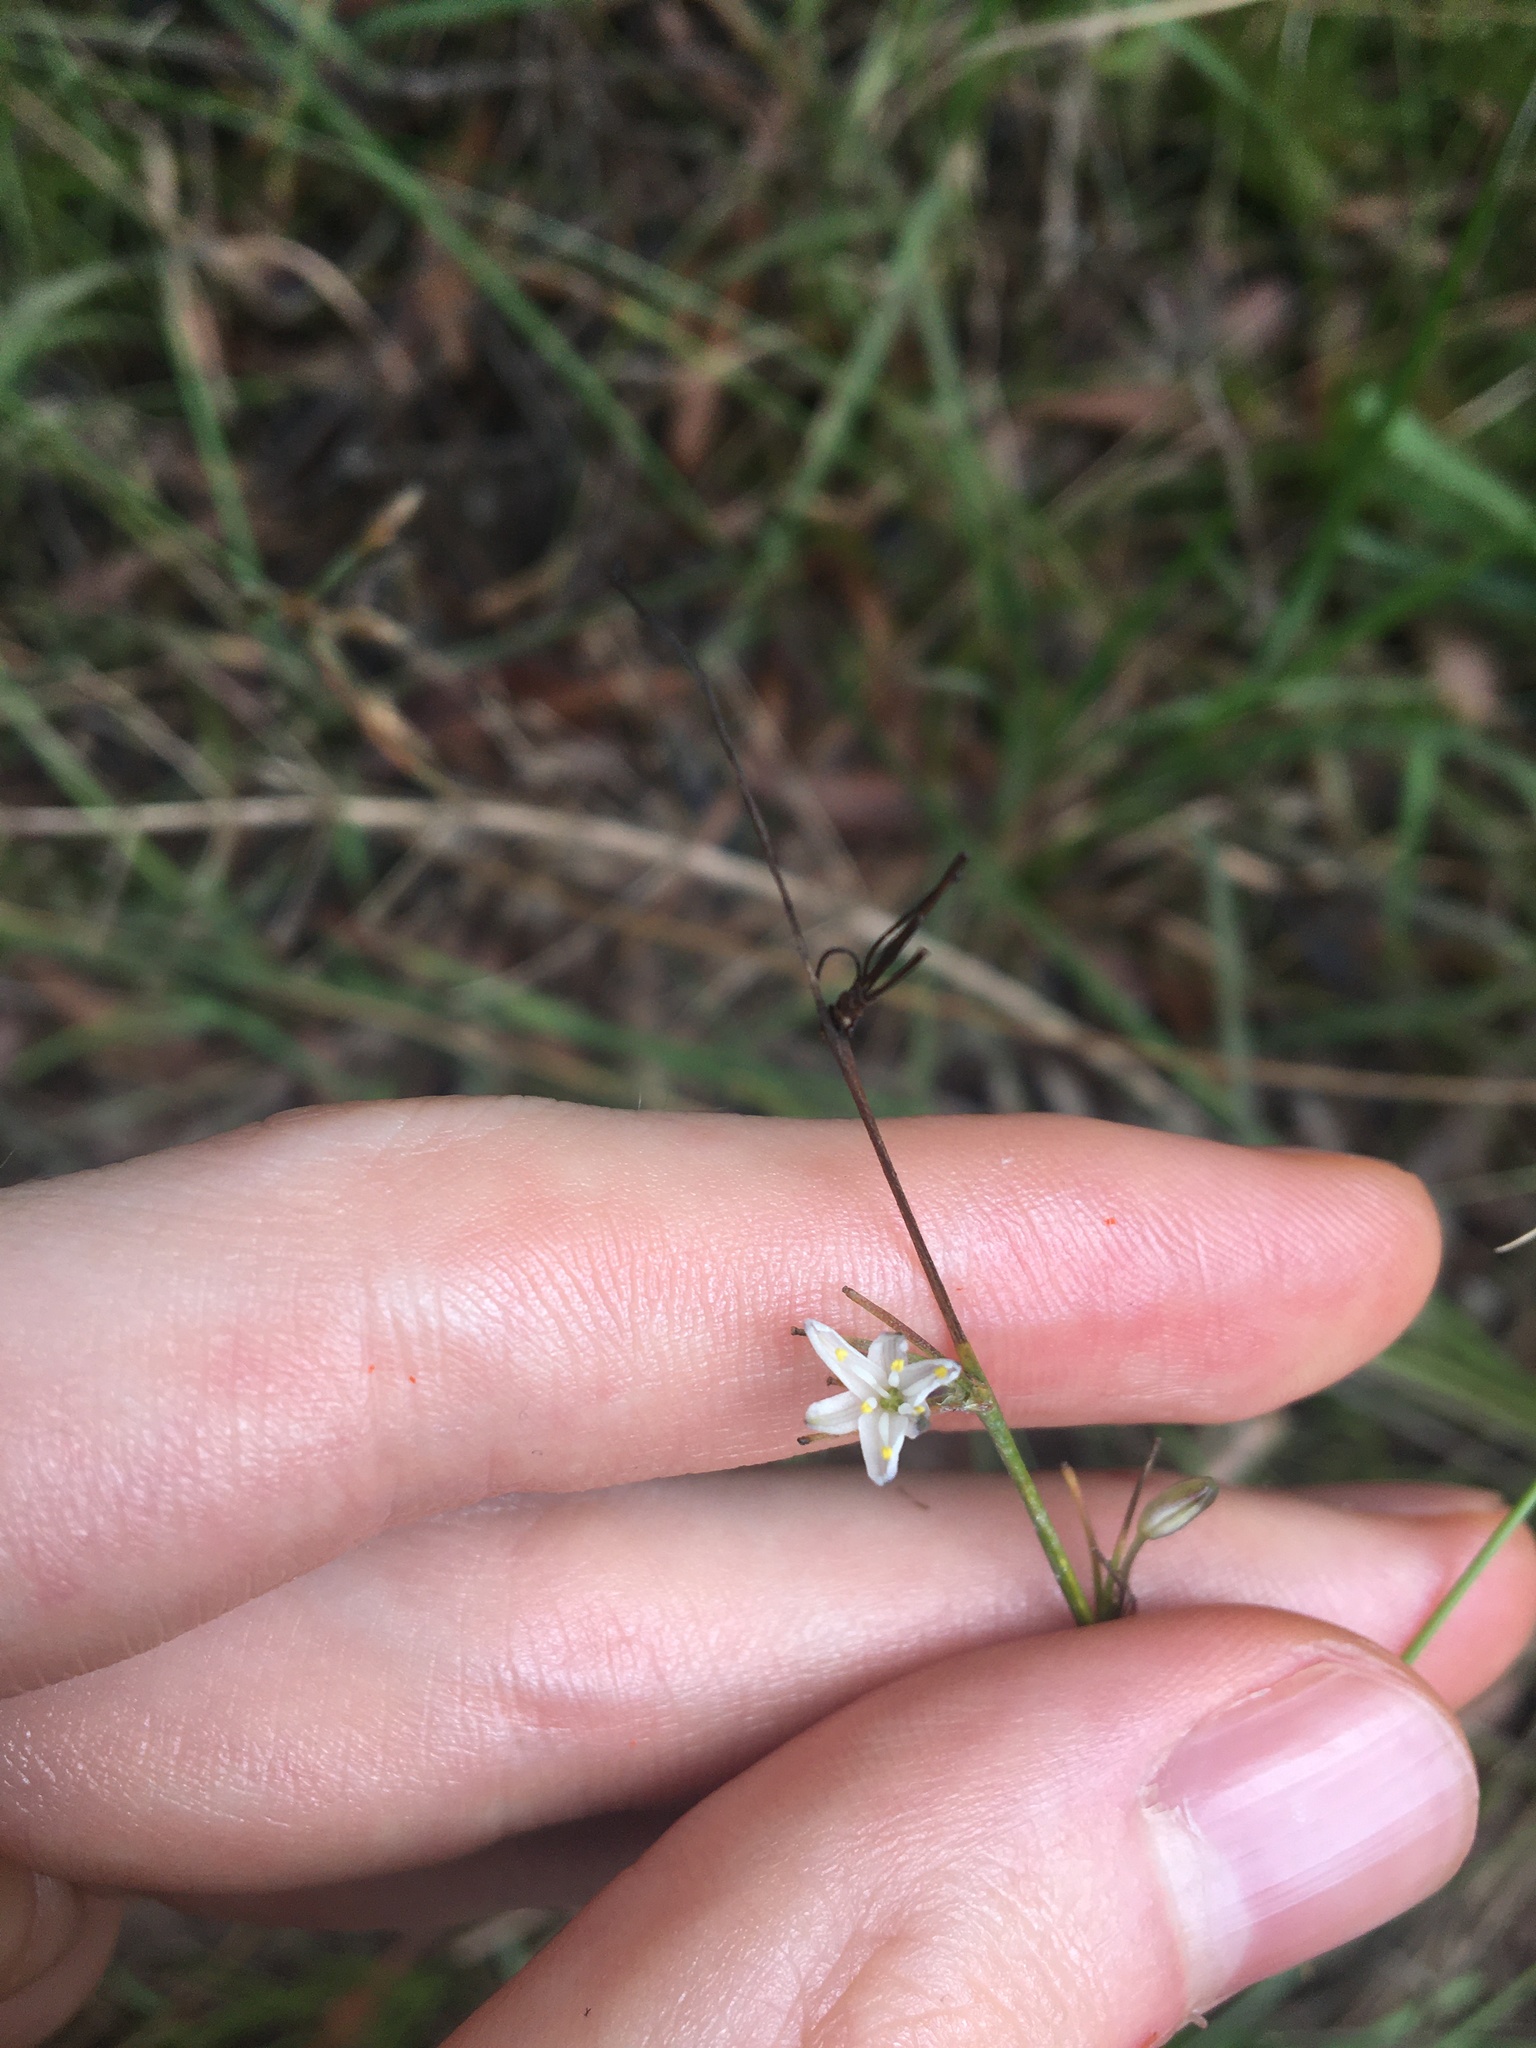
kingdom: Plantae
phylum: Tracheophyta
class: Liliopsida
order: Asparagales
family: Asphodelaceae
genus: Caesia
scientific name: Caesia parviflora
